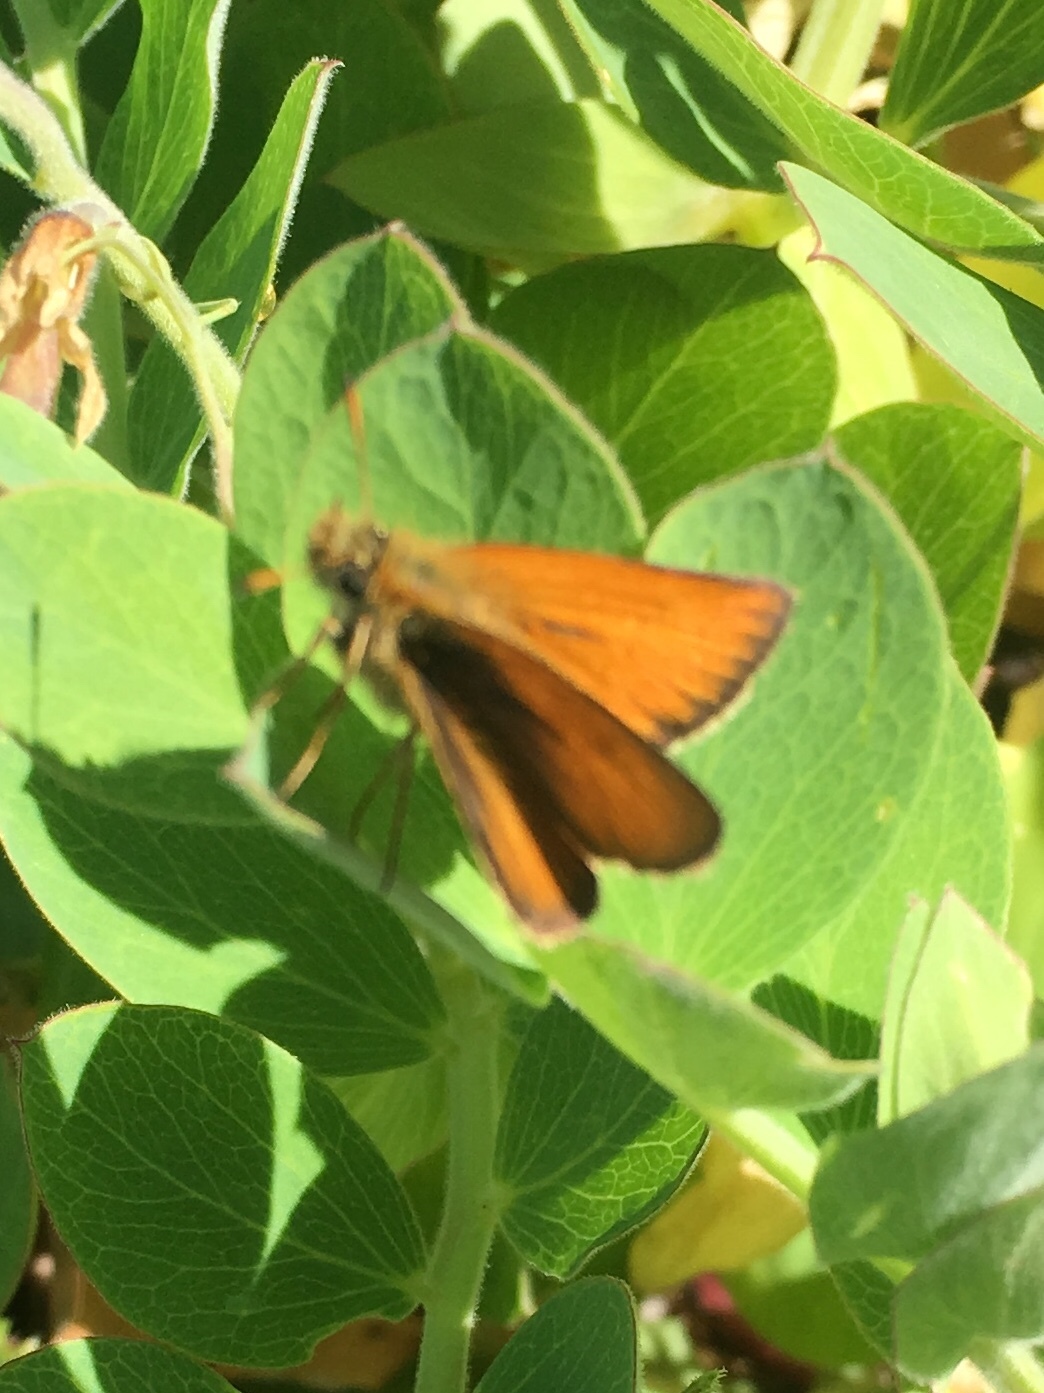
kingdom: Animalia
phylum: Arthropoda
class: Insecta
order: Lepidoptera
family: Hesperiidae
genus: Thymelicus
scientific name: Thymelicus lineola
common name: Essex skipper
